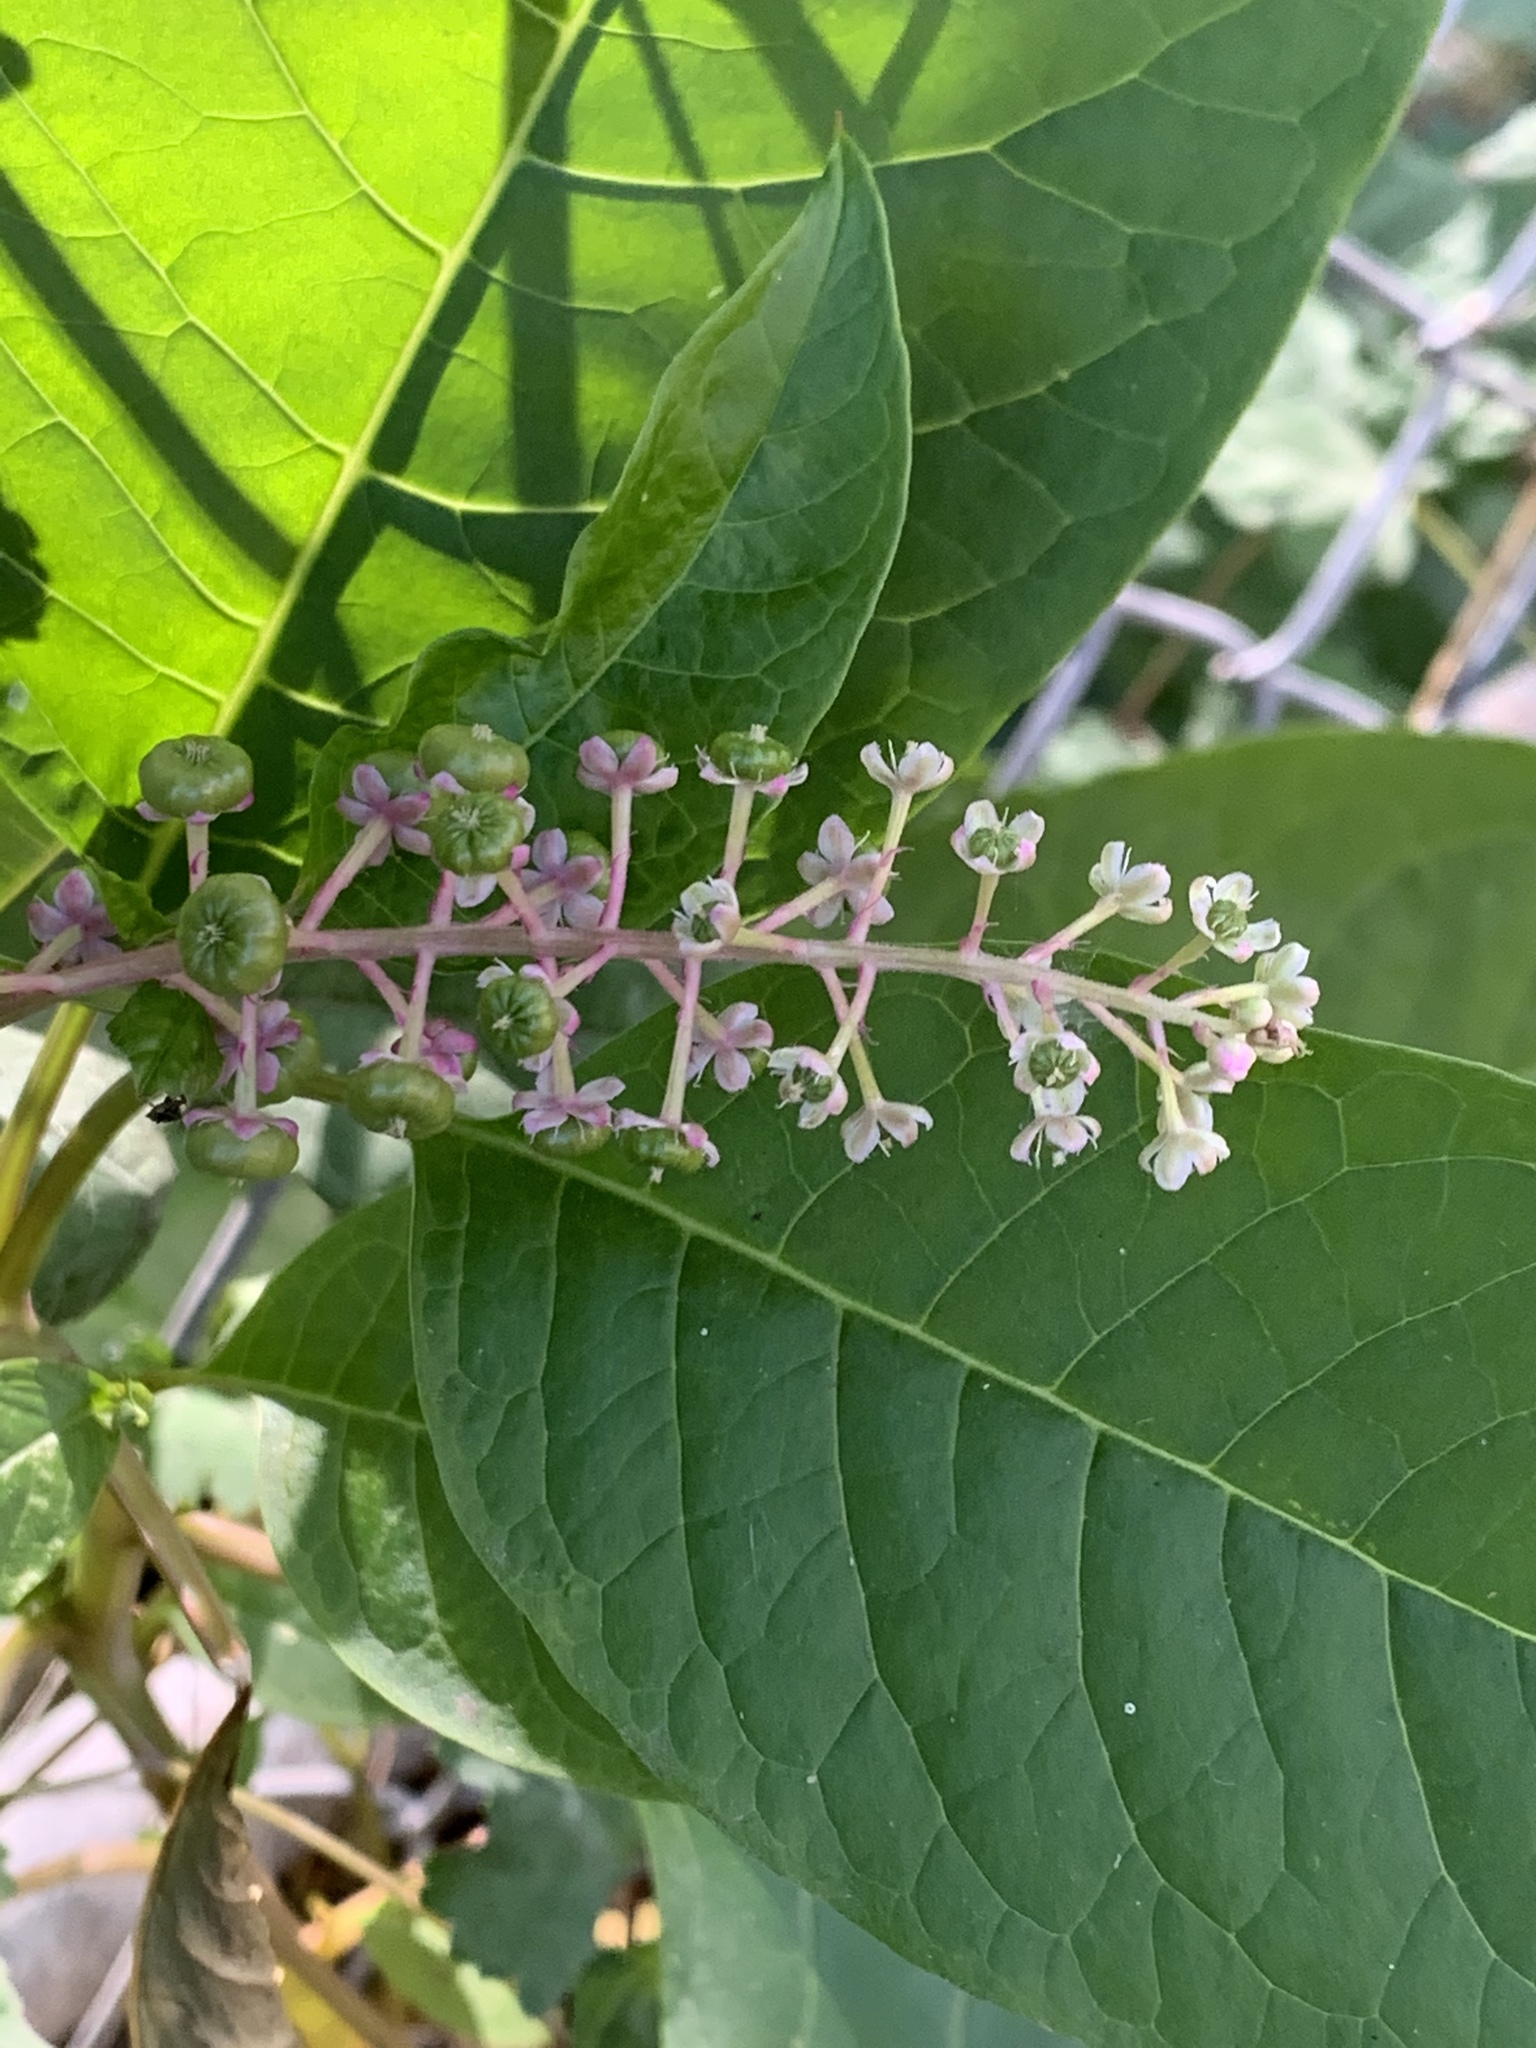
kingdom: Plantae
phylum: Tracheophyta
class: Magnoliopsida
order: Caryophyllales
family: Phytolaccaceae
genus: Phytolacca
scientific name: Phytolacca americana
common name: American pokeweed
